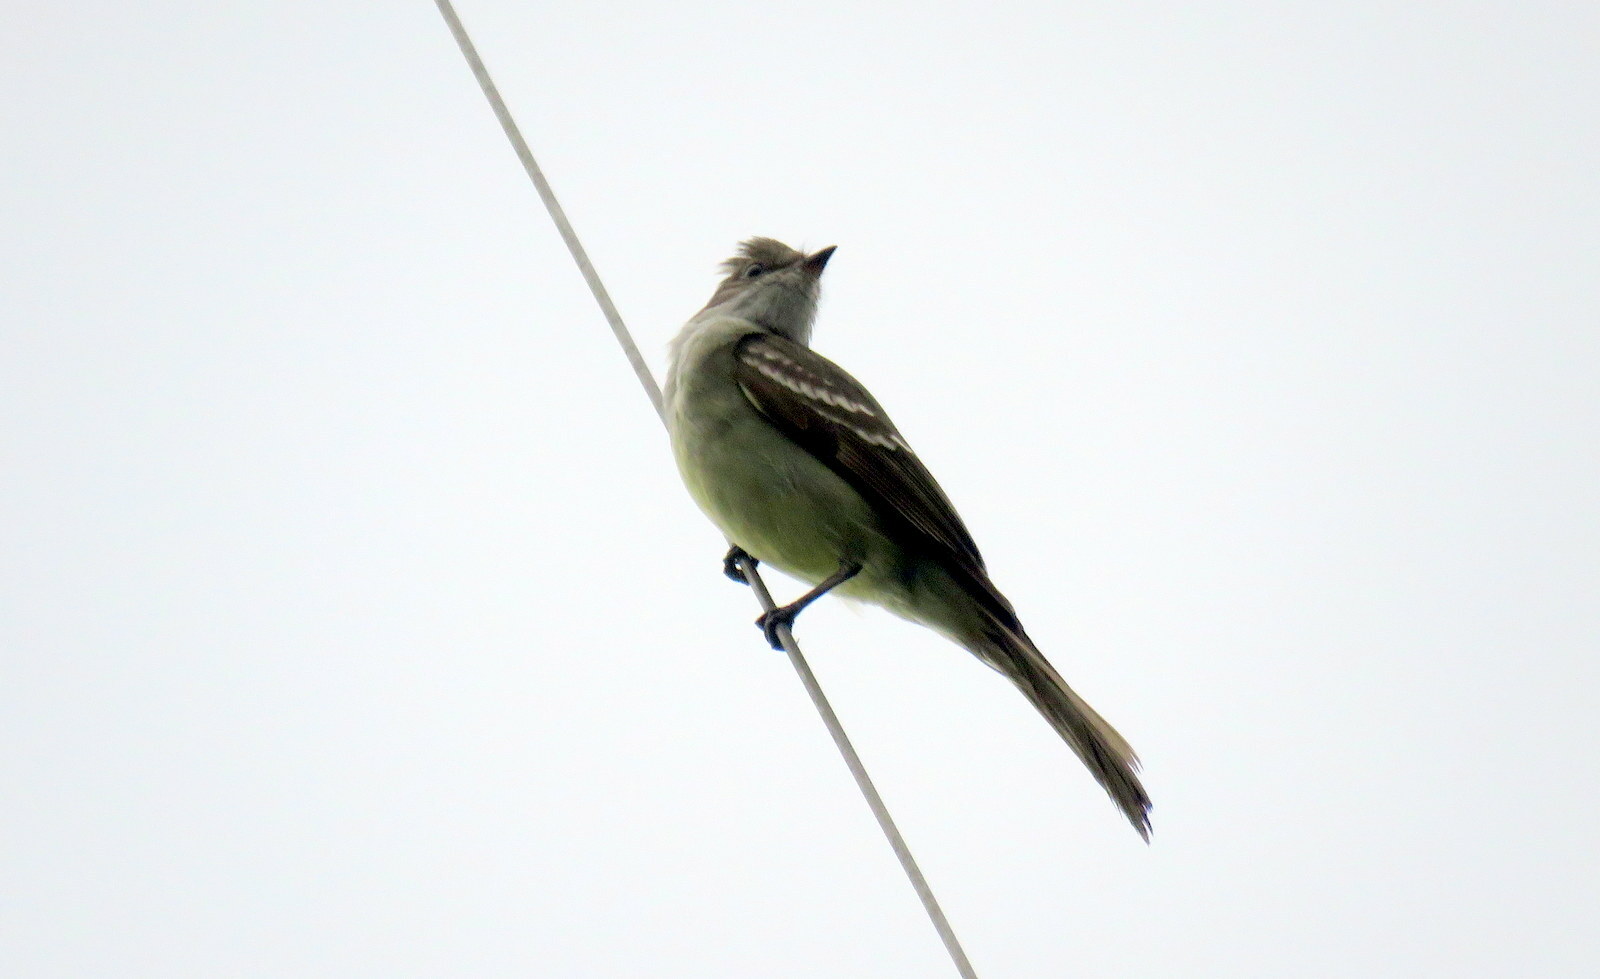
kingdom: Animalia
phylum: Chordata
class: Aves
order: Passeriformes
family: Tyrannidae
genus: Elaenia
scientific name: Elaenia flavogaster
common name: Yellow-bellied elaenia
